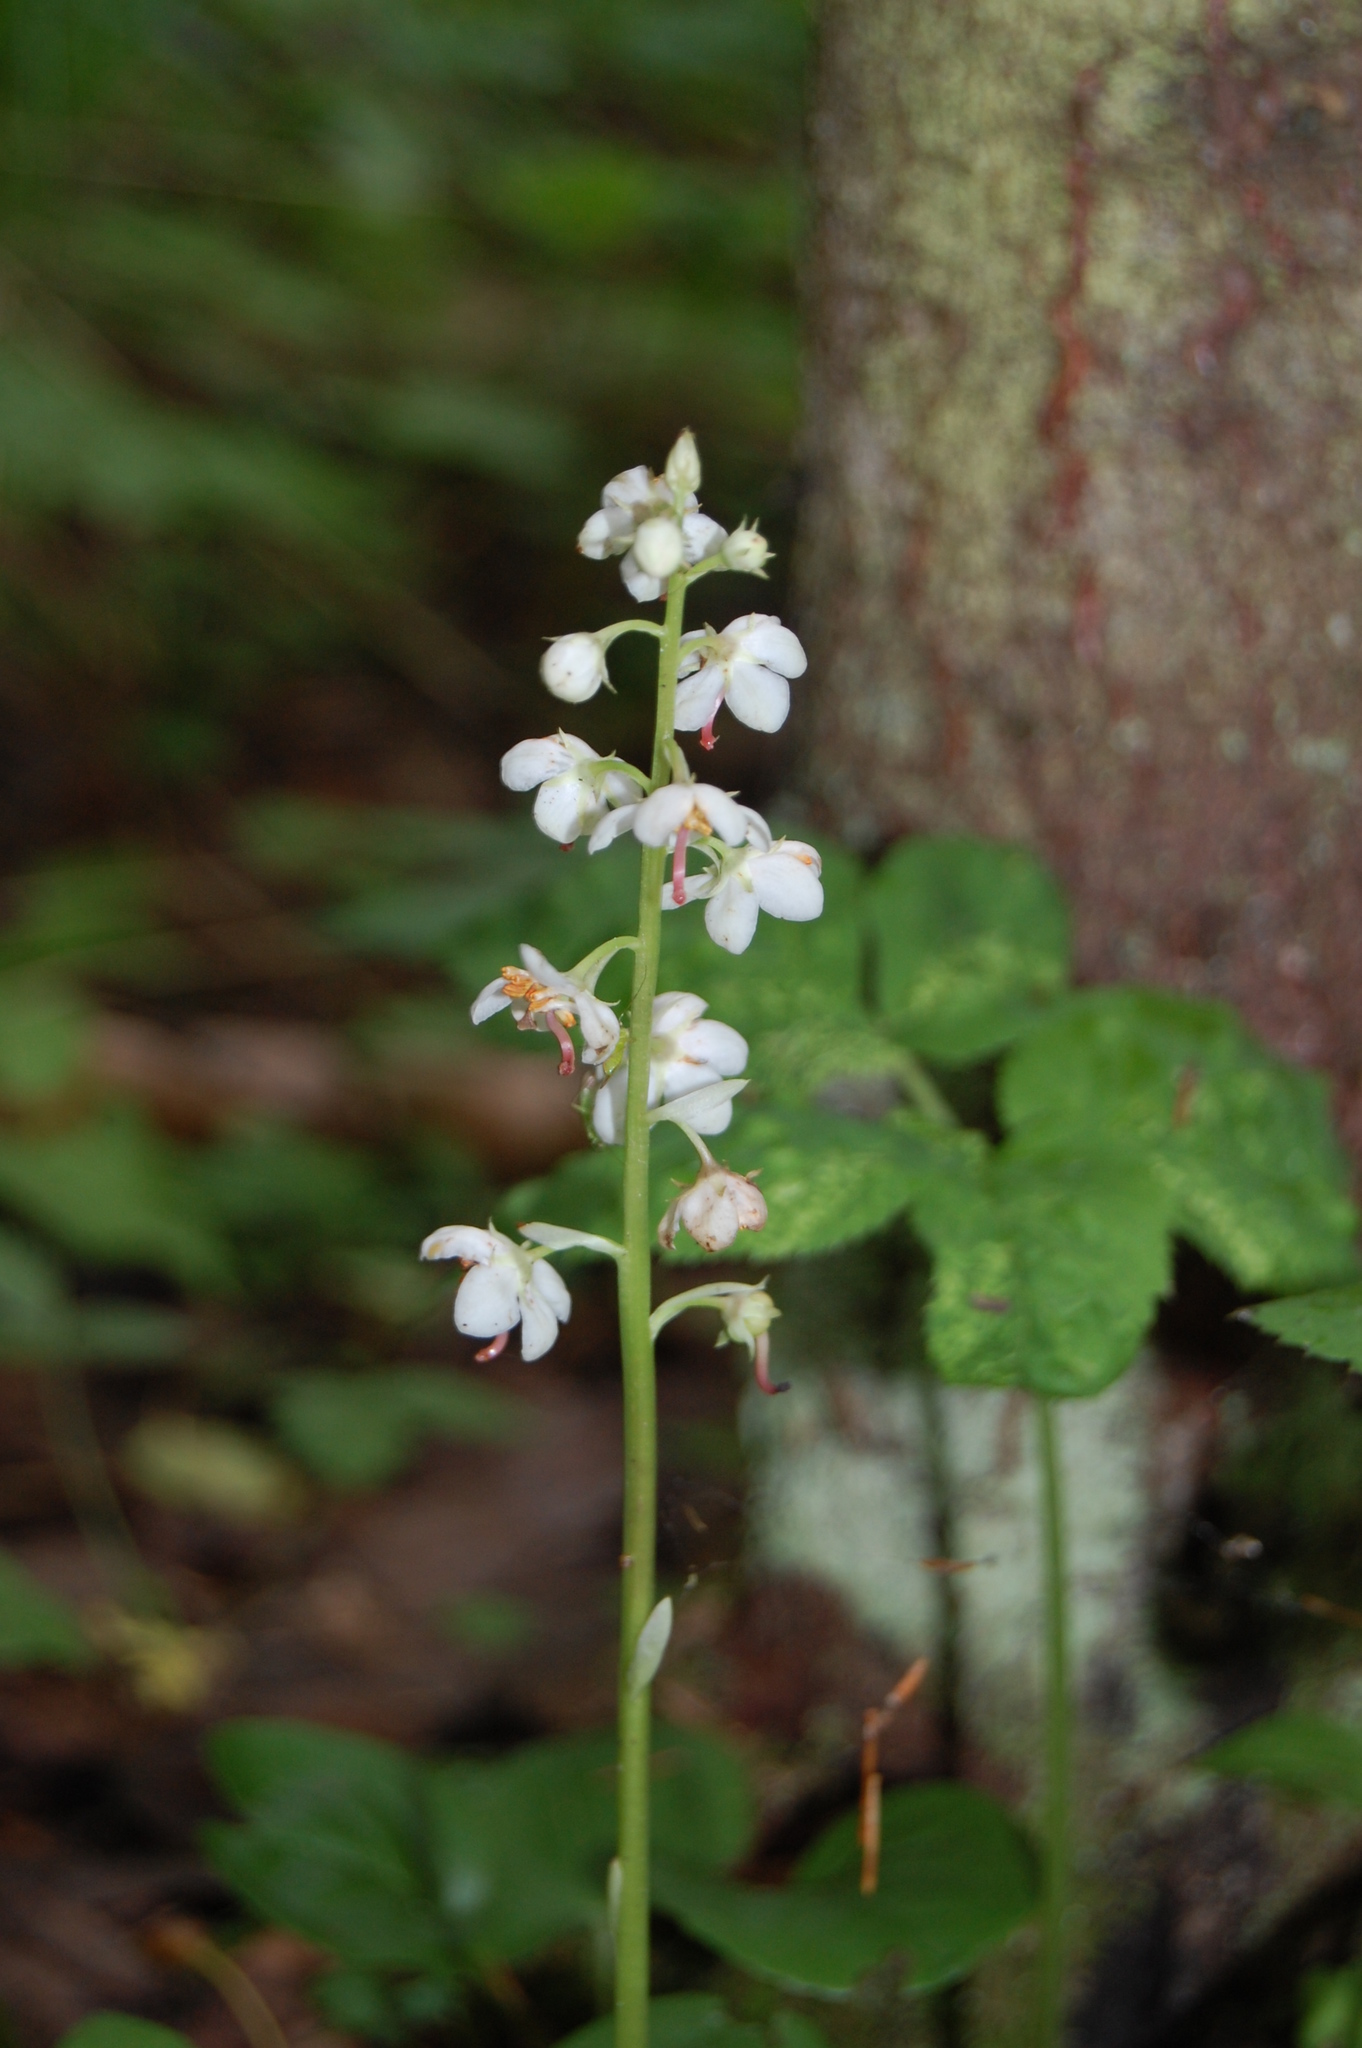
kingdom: Plantae
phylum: Tracheophyta
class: Magnoliopsida
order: Ericales
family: Ericaceae
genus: Pyrola
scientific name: Pyrola rotundifolia
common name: Round-leaved wintergreen
